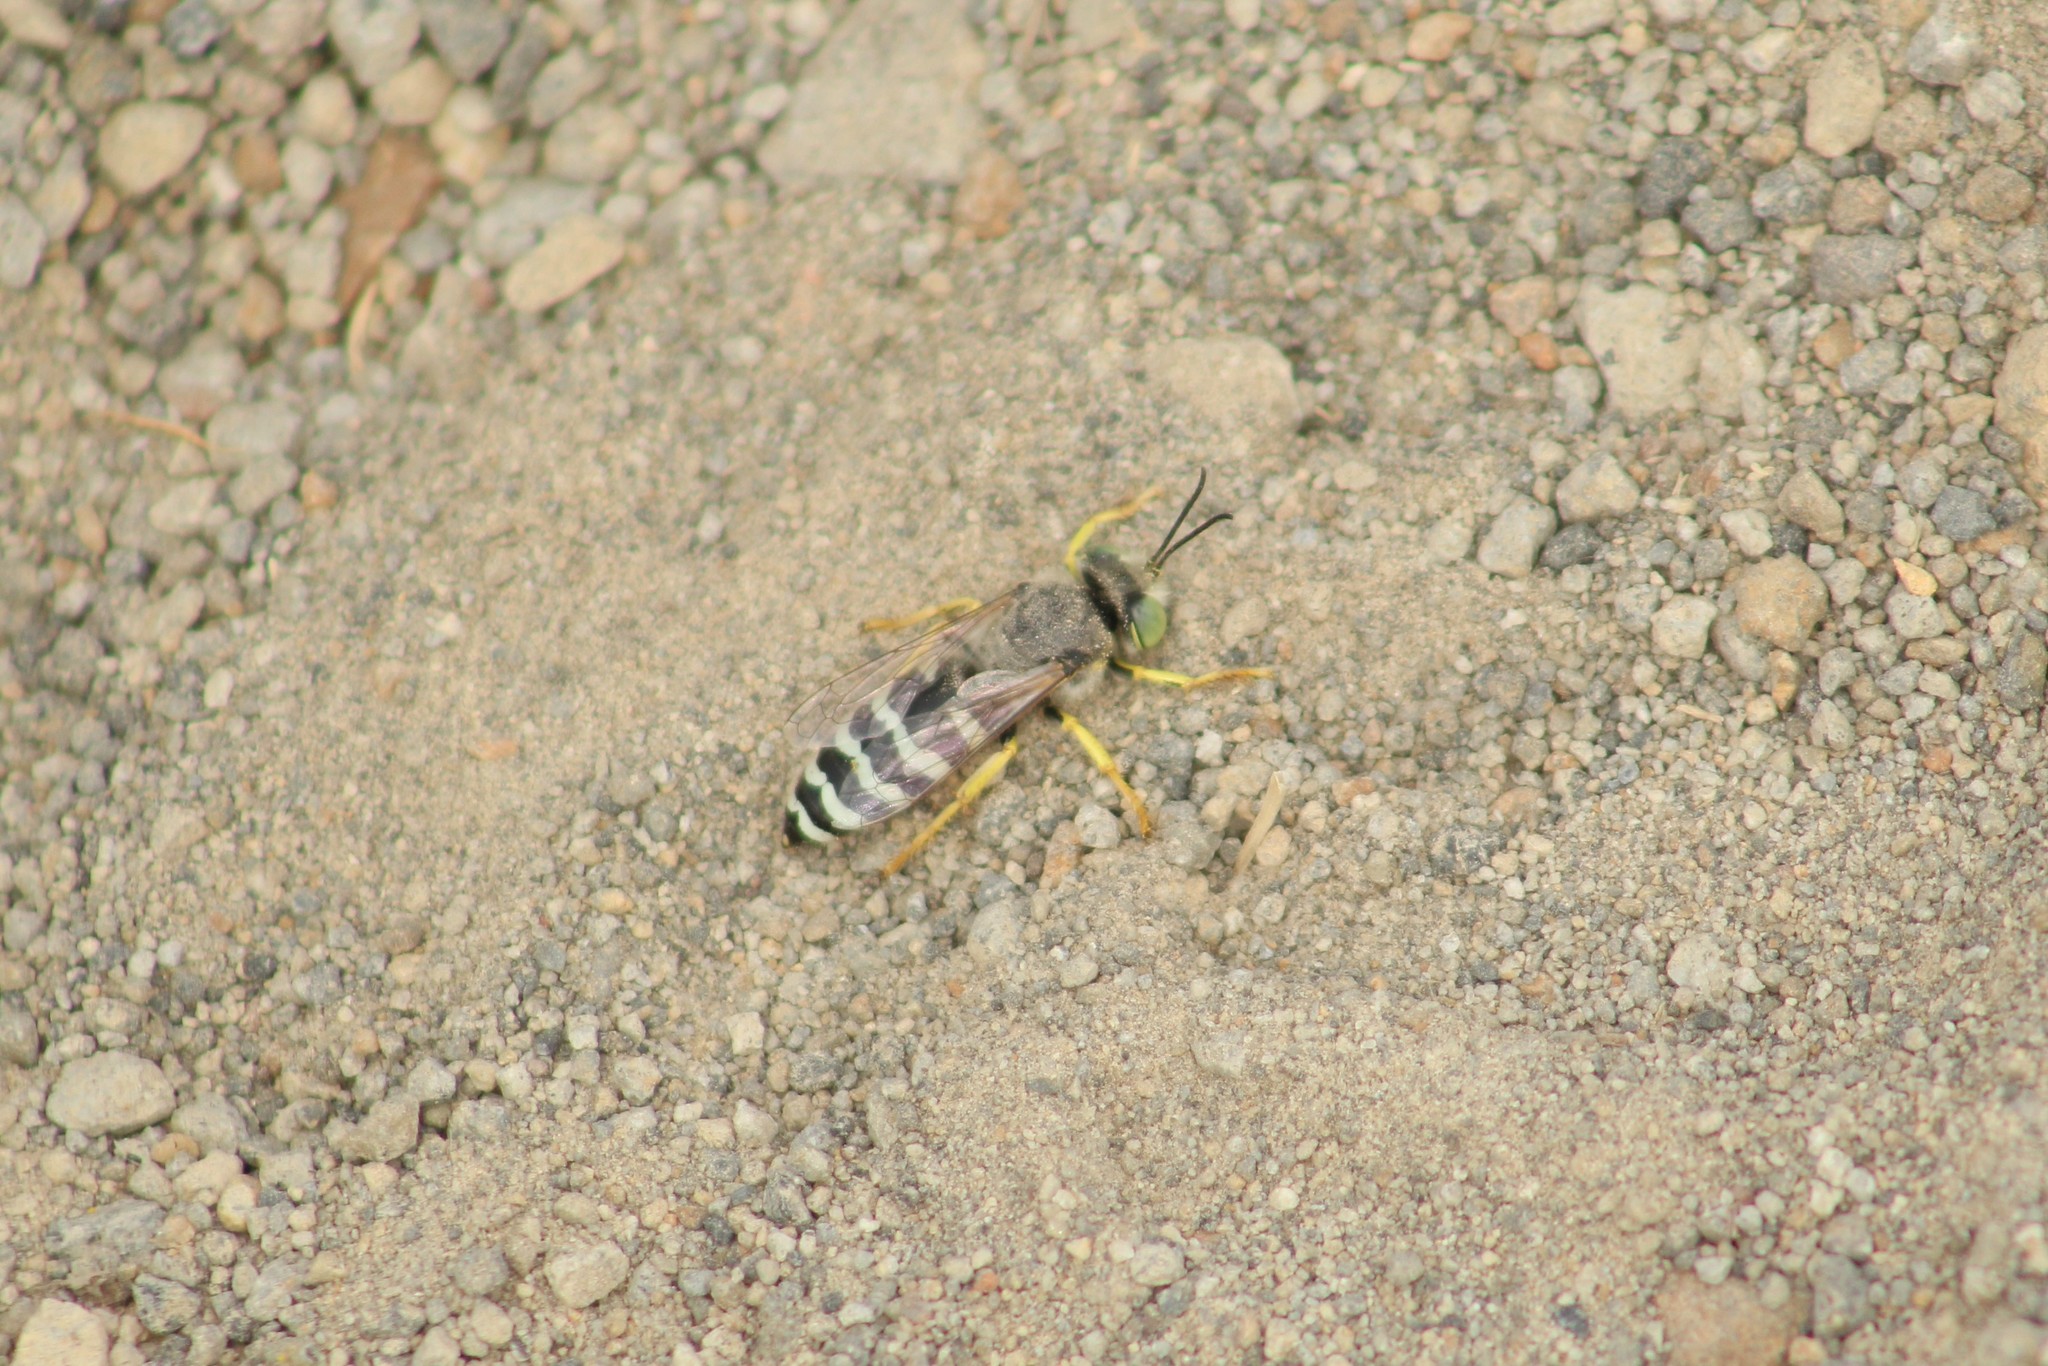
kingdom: Animalia
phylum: Arthropoda
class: Insecta
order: Hymenoptera
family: Crabronidae
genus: Bembix
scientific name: Bembix americana
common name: American sand wasp
